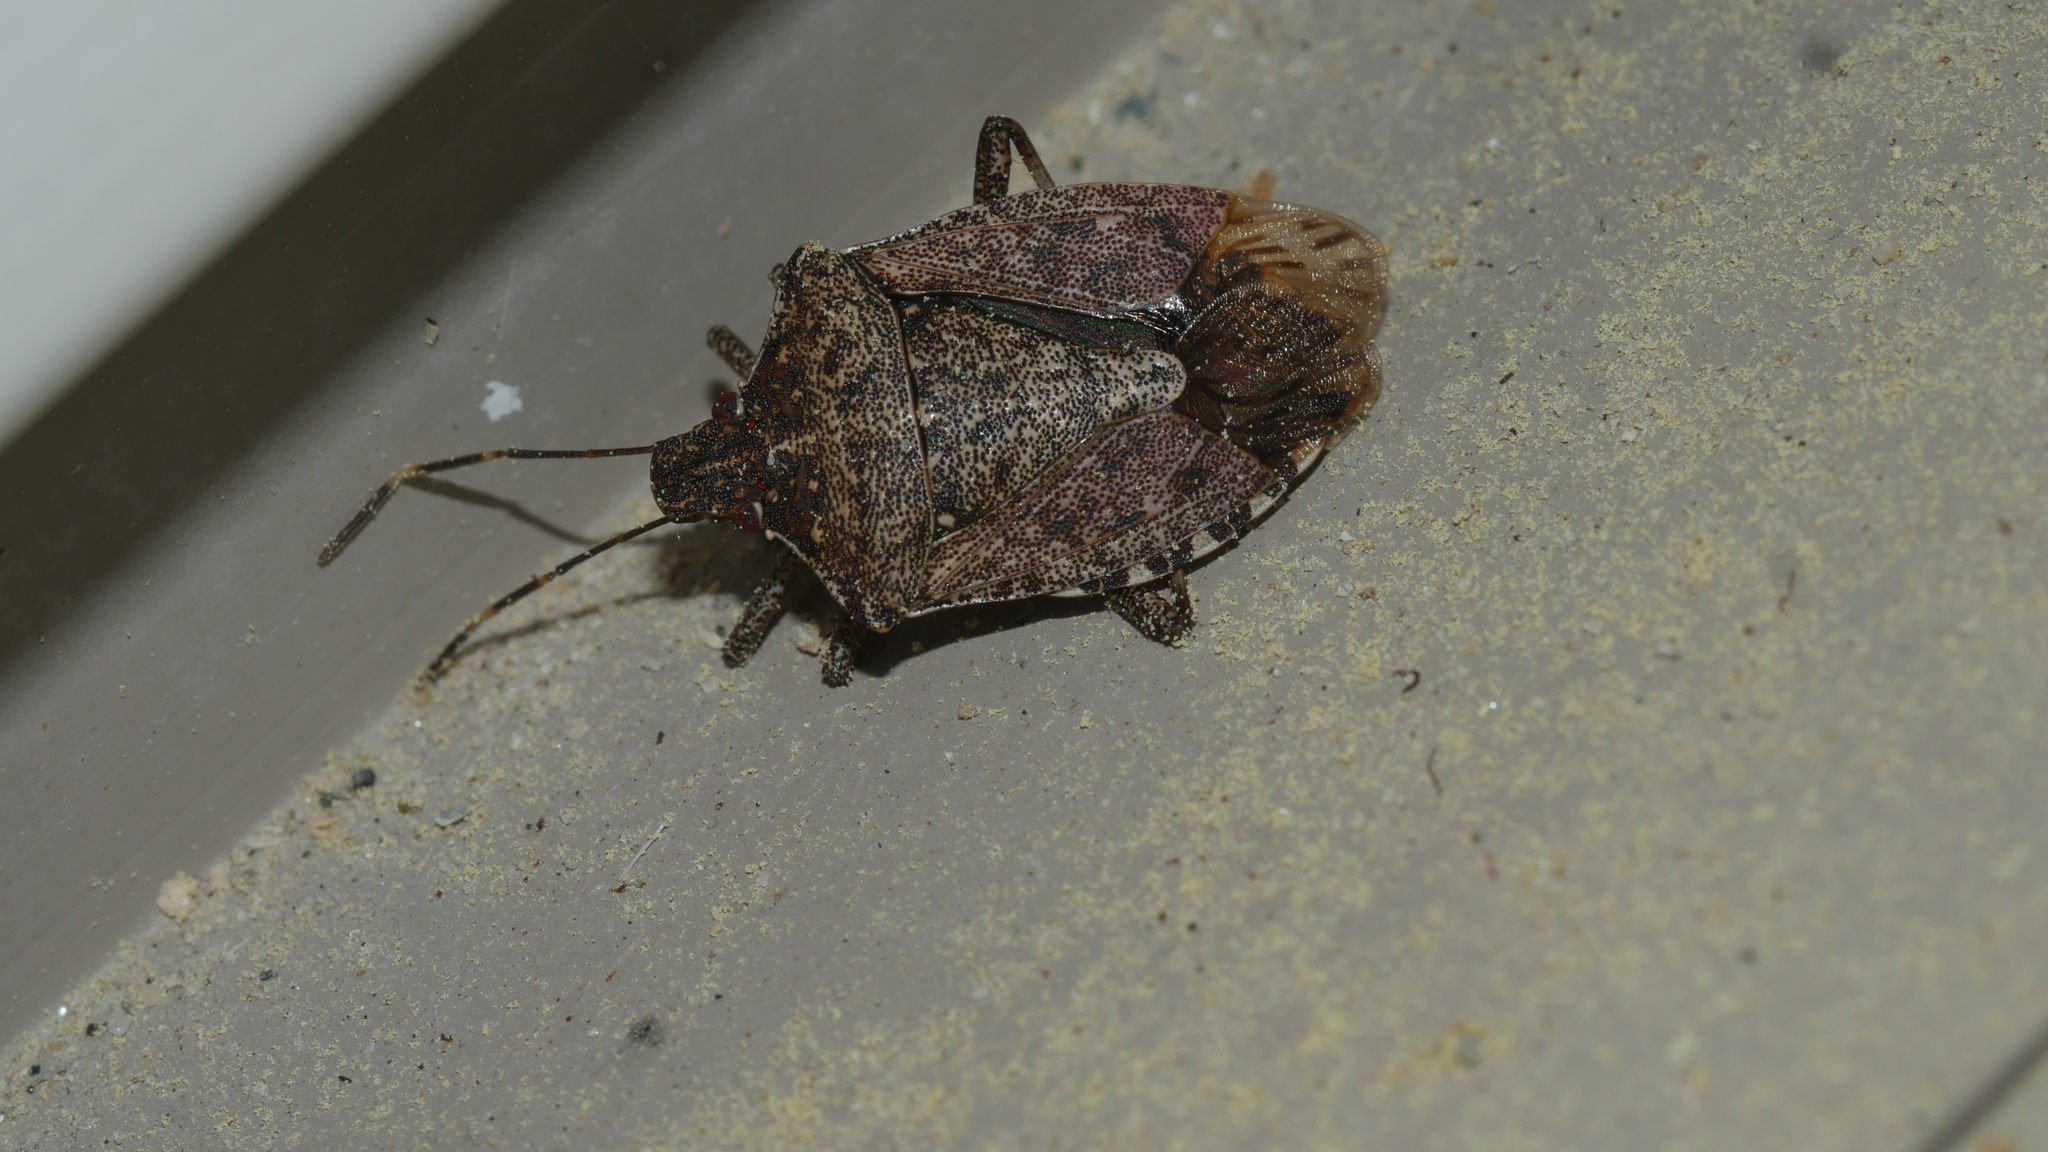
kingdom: Animalia
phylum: Arthropoda
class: Insecta
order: Hemiptera
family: Pentatomidae
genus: Halyomorpha
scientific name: Halyomorpha halys
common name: Brown marmorated stink bug
